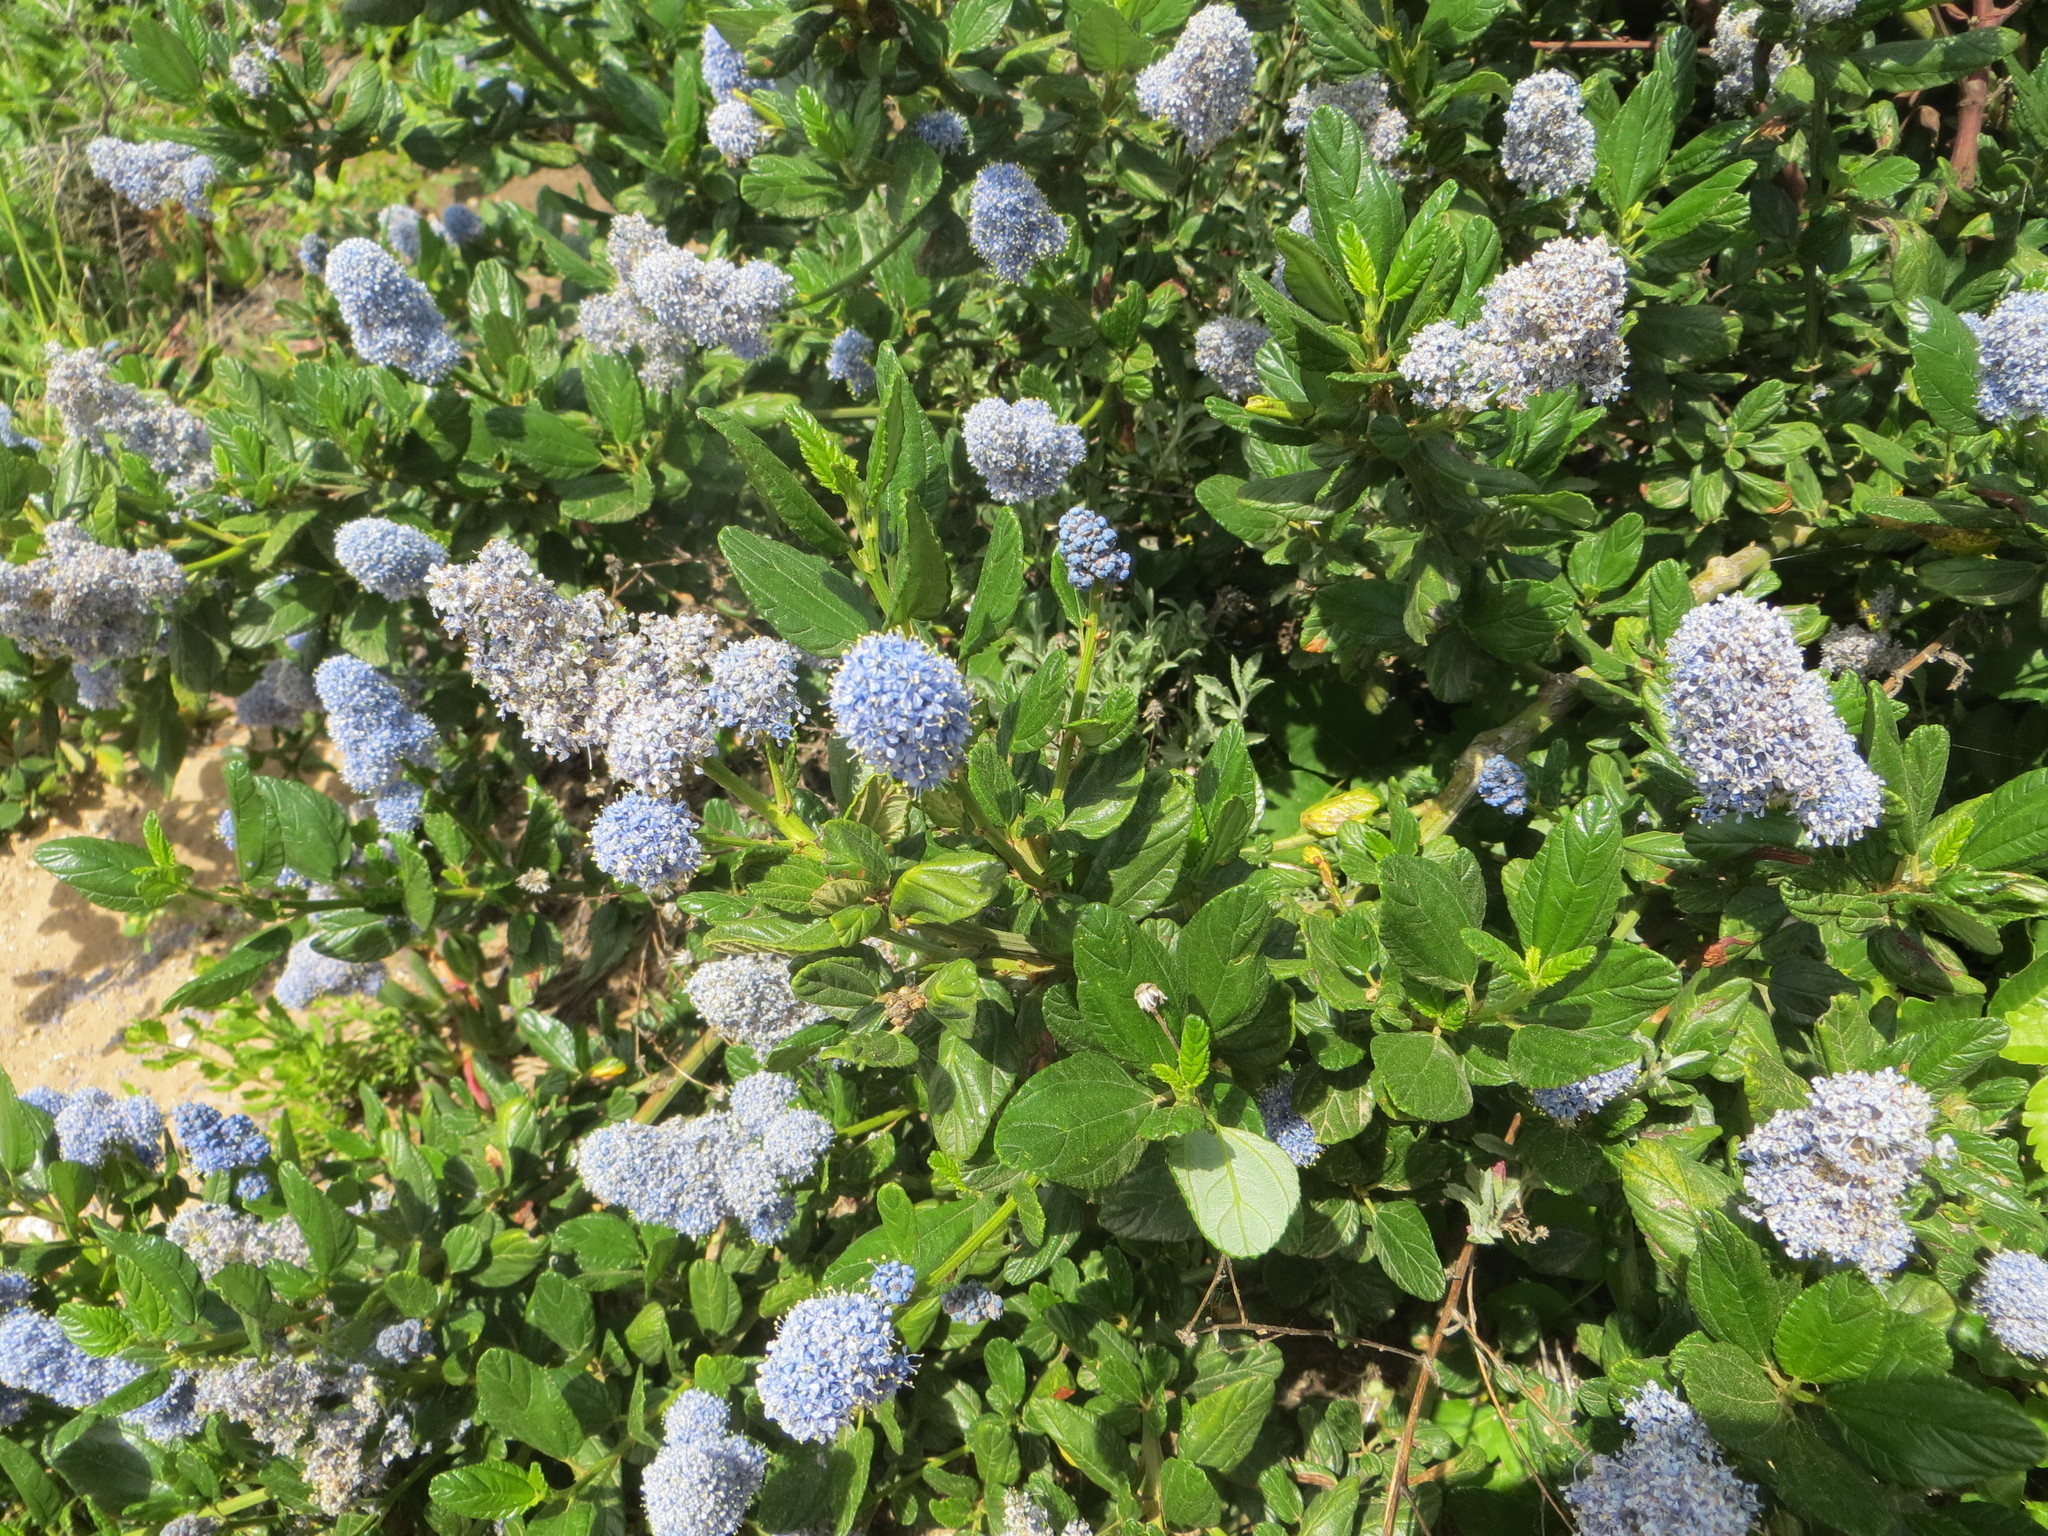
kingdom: Plantae
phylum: Tracheophyta
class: Magnoliopsida
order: Rosales
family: Rhamnaceae
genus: Ceanothus
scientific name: Ceanothus griseus
